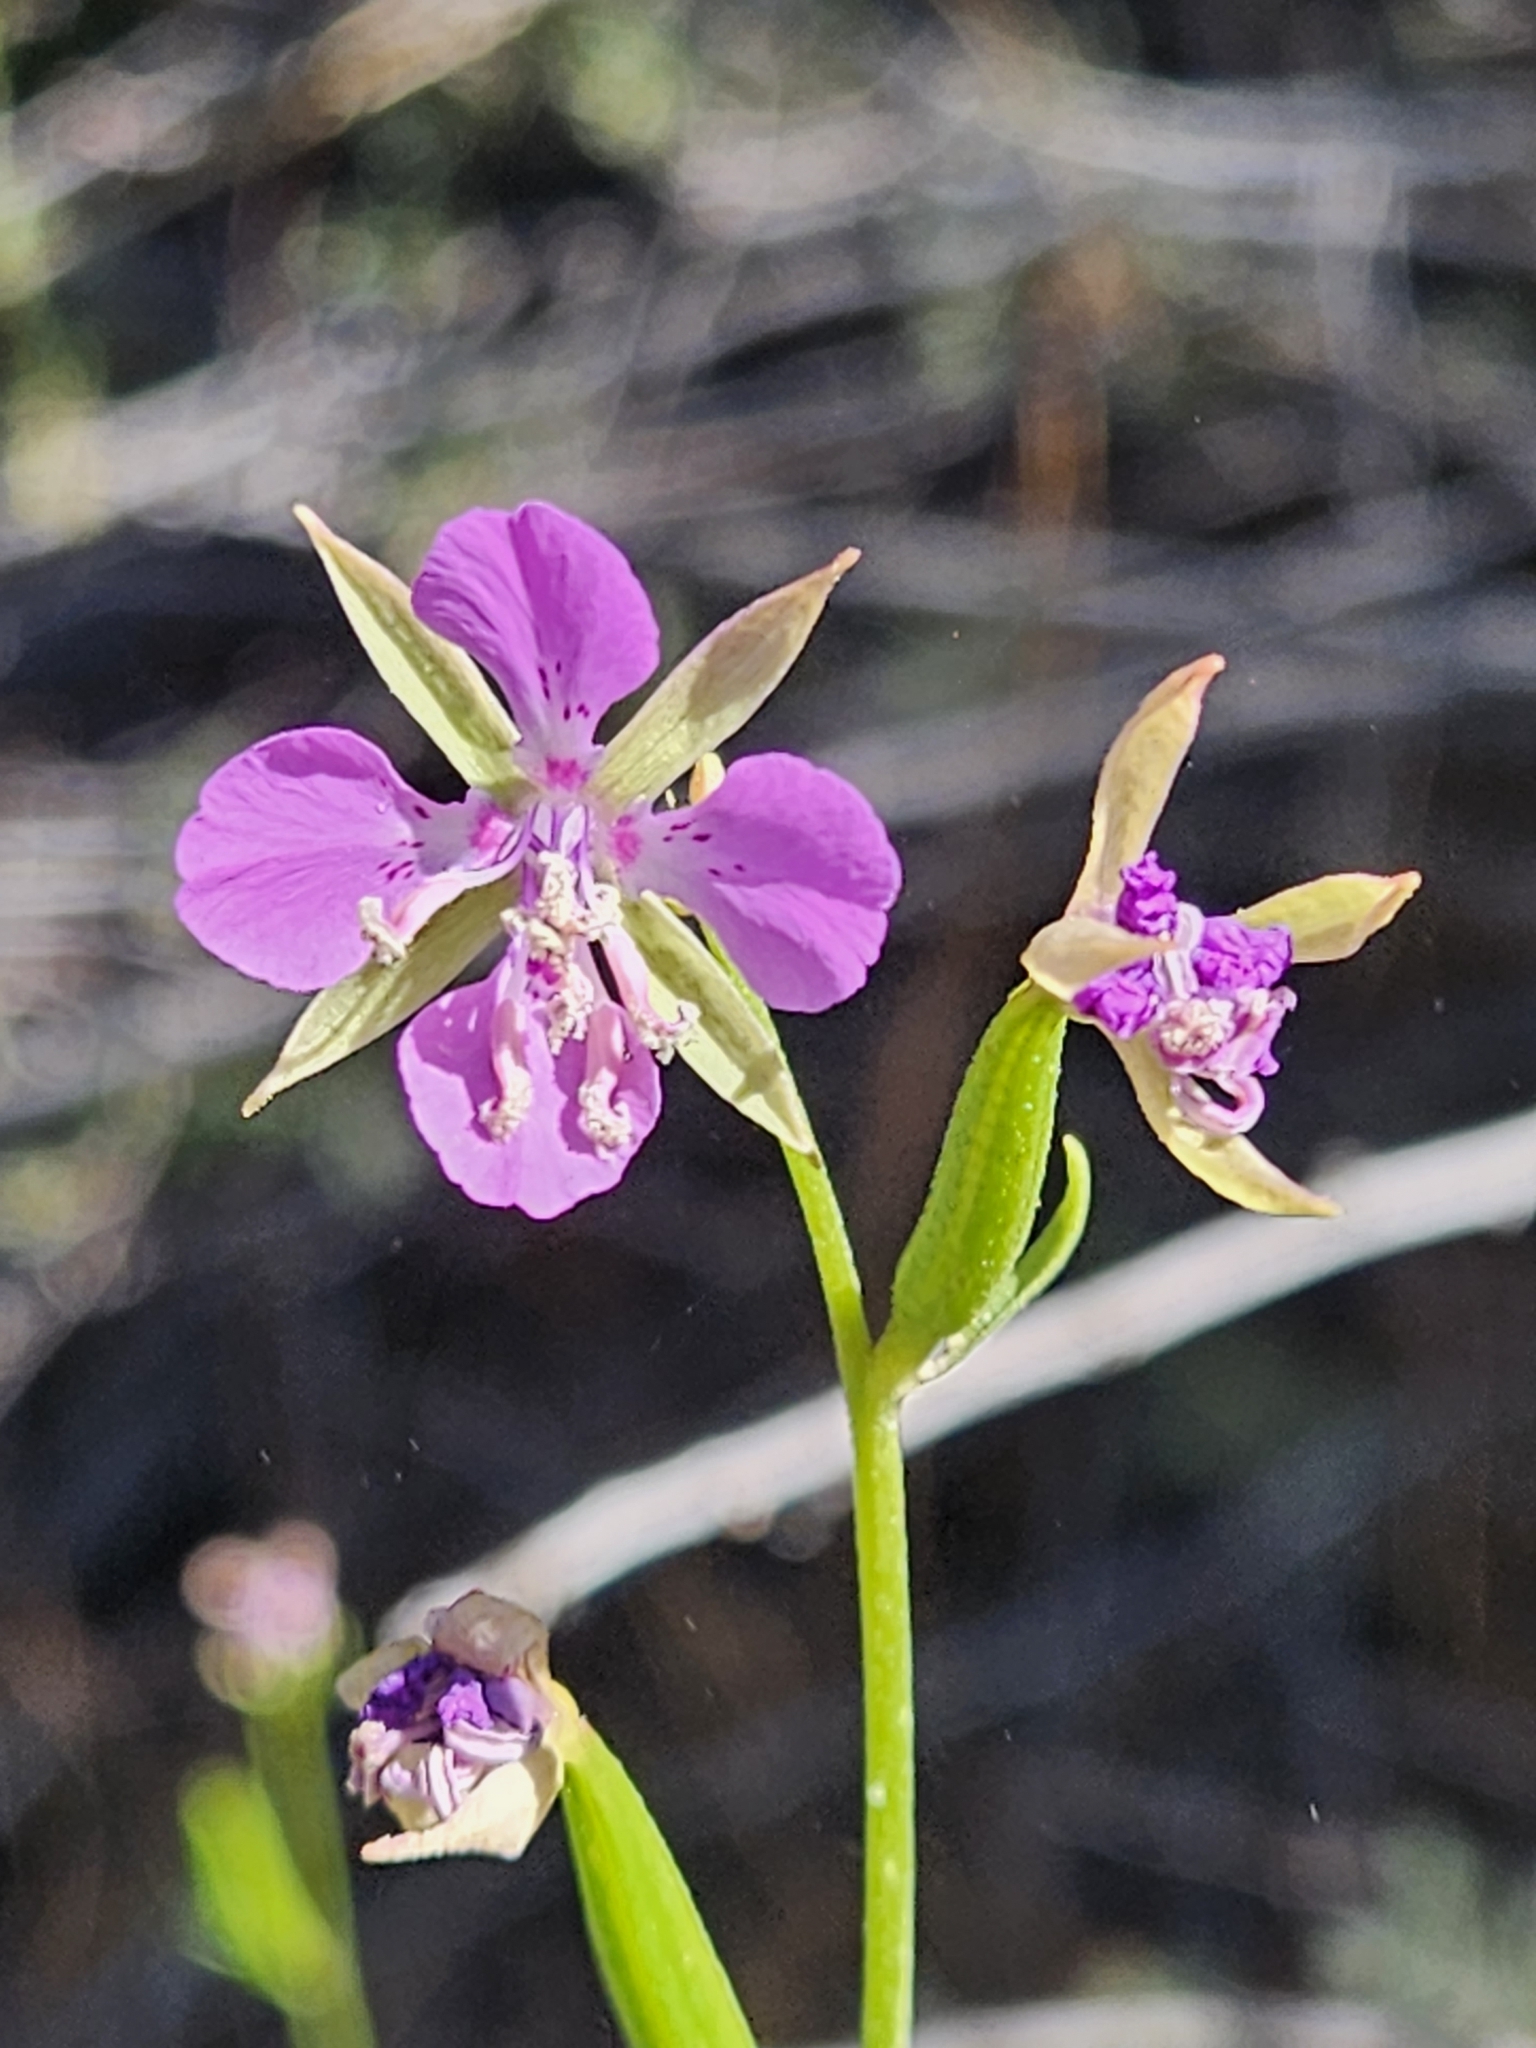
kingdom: Plantae
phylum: Tracheophyta
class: Magnoliopsida
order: Myrtales
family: Onagraceae
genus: Clarkia
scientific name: Clarkia rhomboidea
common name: Broadleaf clarkia
